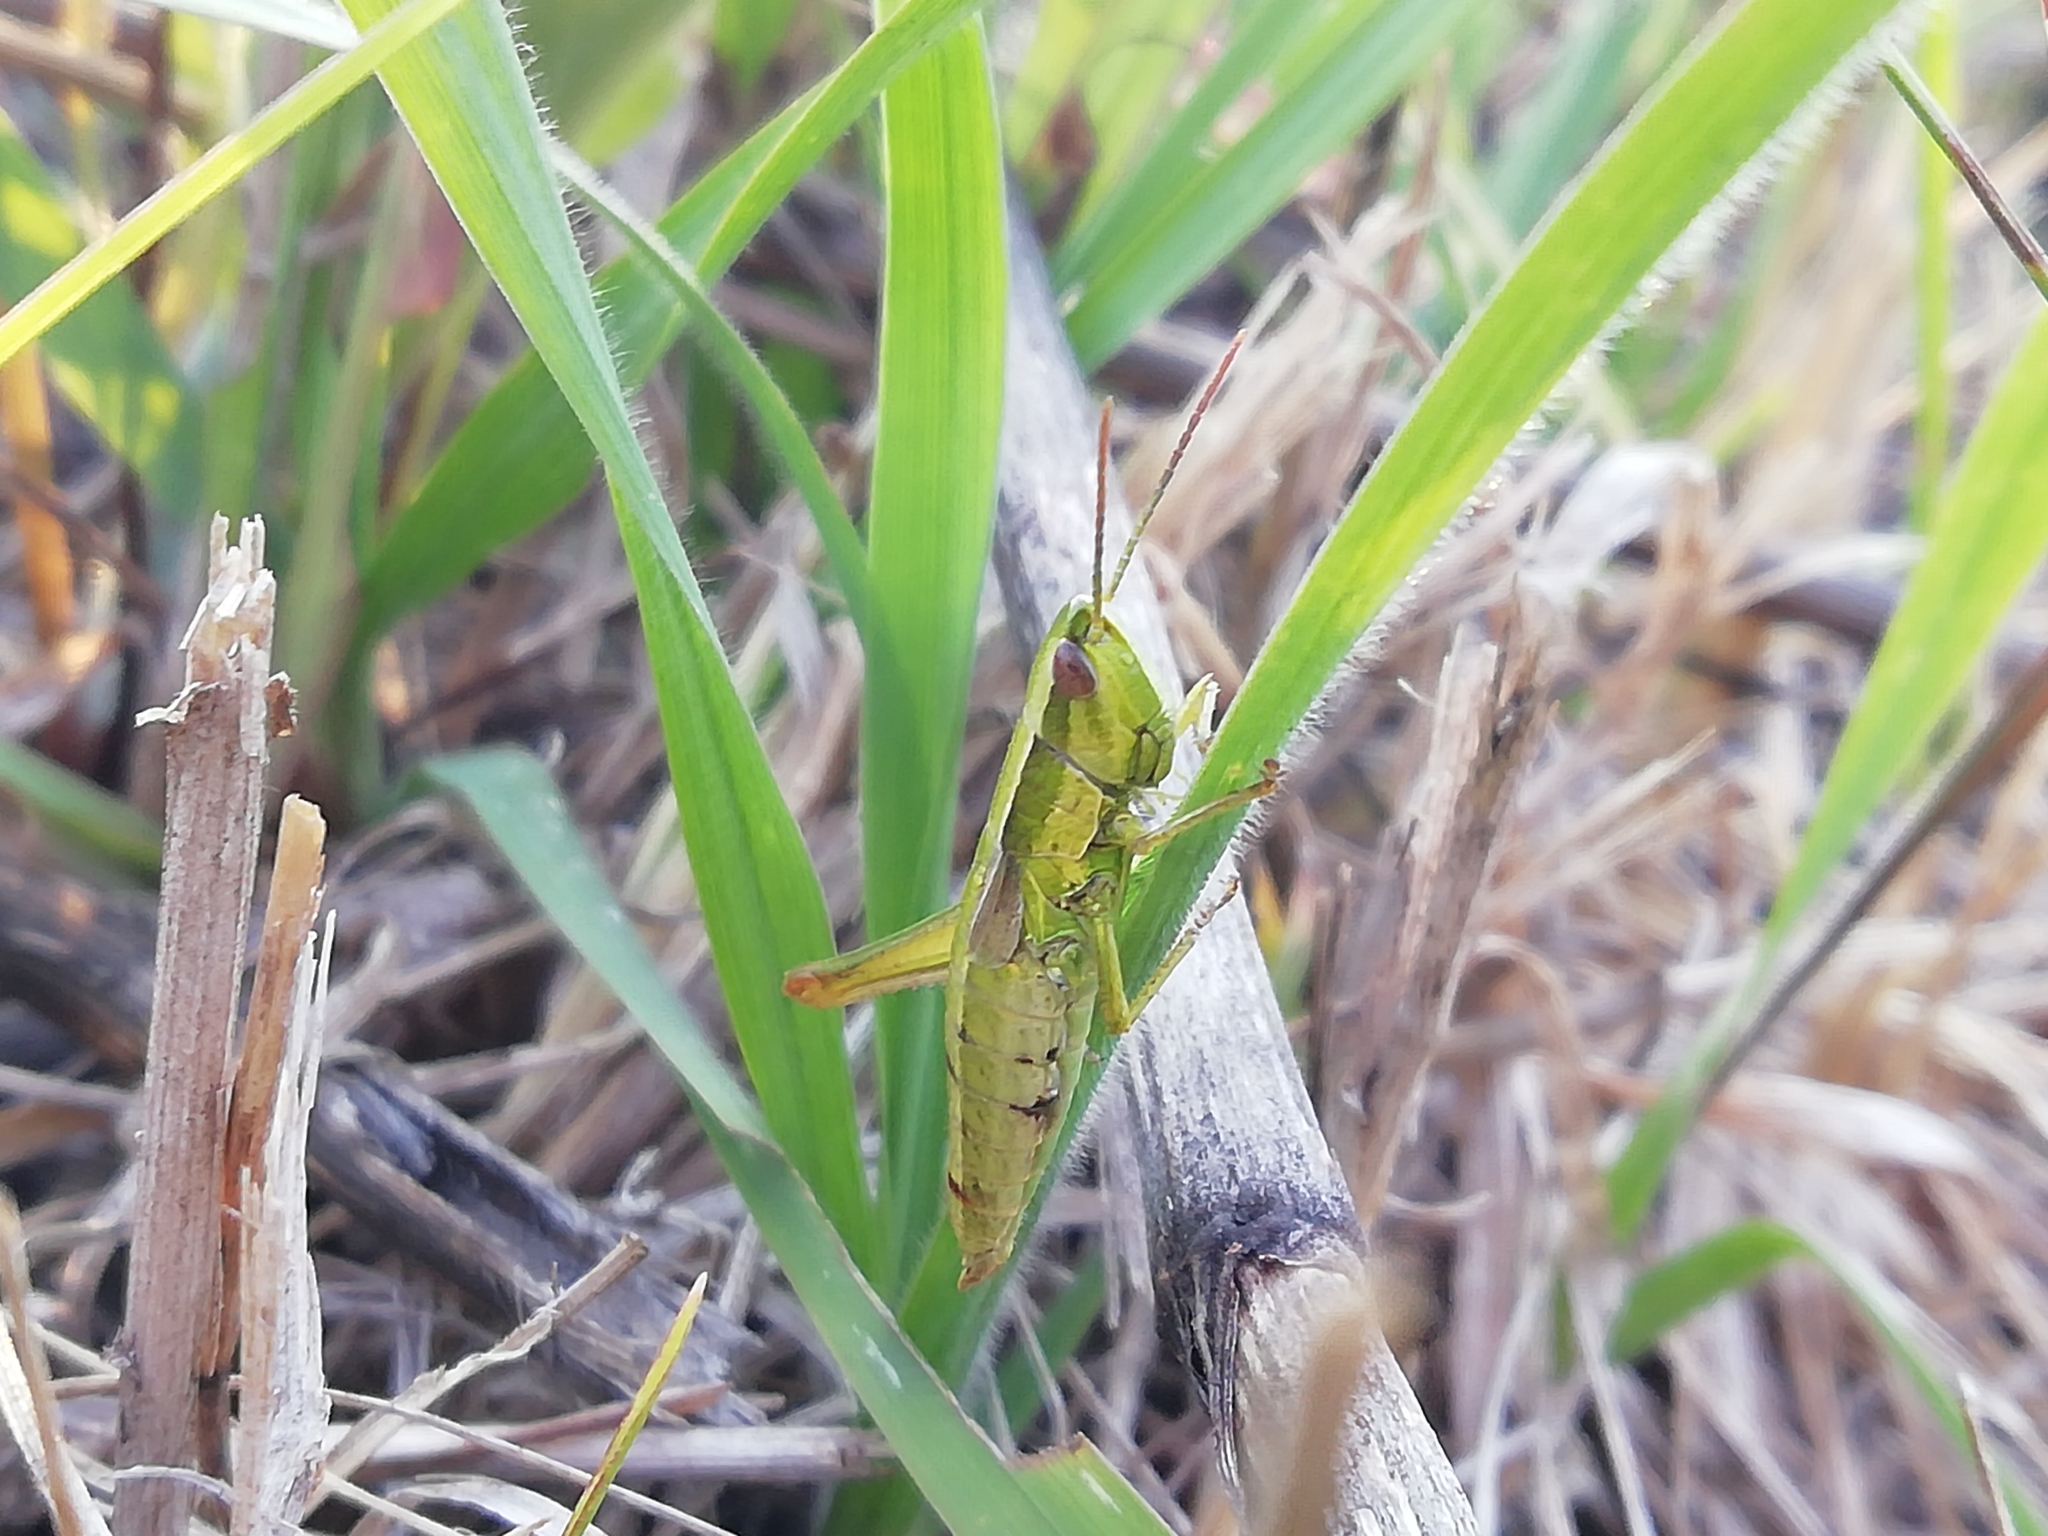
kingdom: Animalia
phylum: Arthropoda
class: Insecta
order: Orthoptera
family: Acrididae
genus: Euthystira
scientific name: Euthystira brachyptera
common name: Small gold grasshopper
